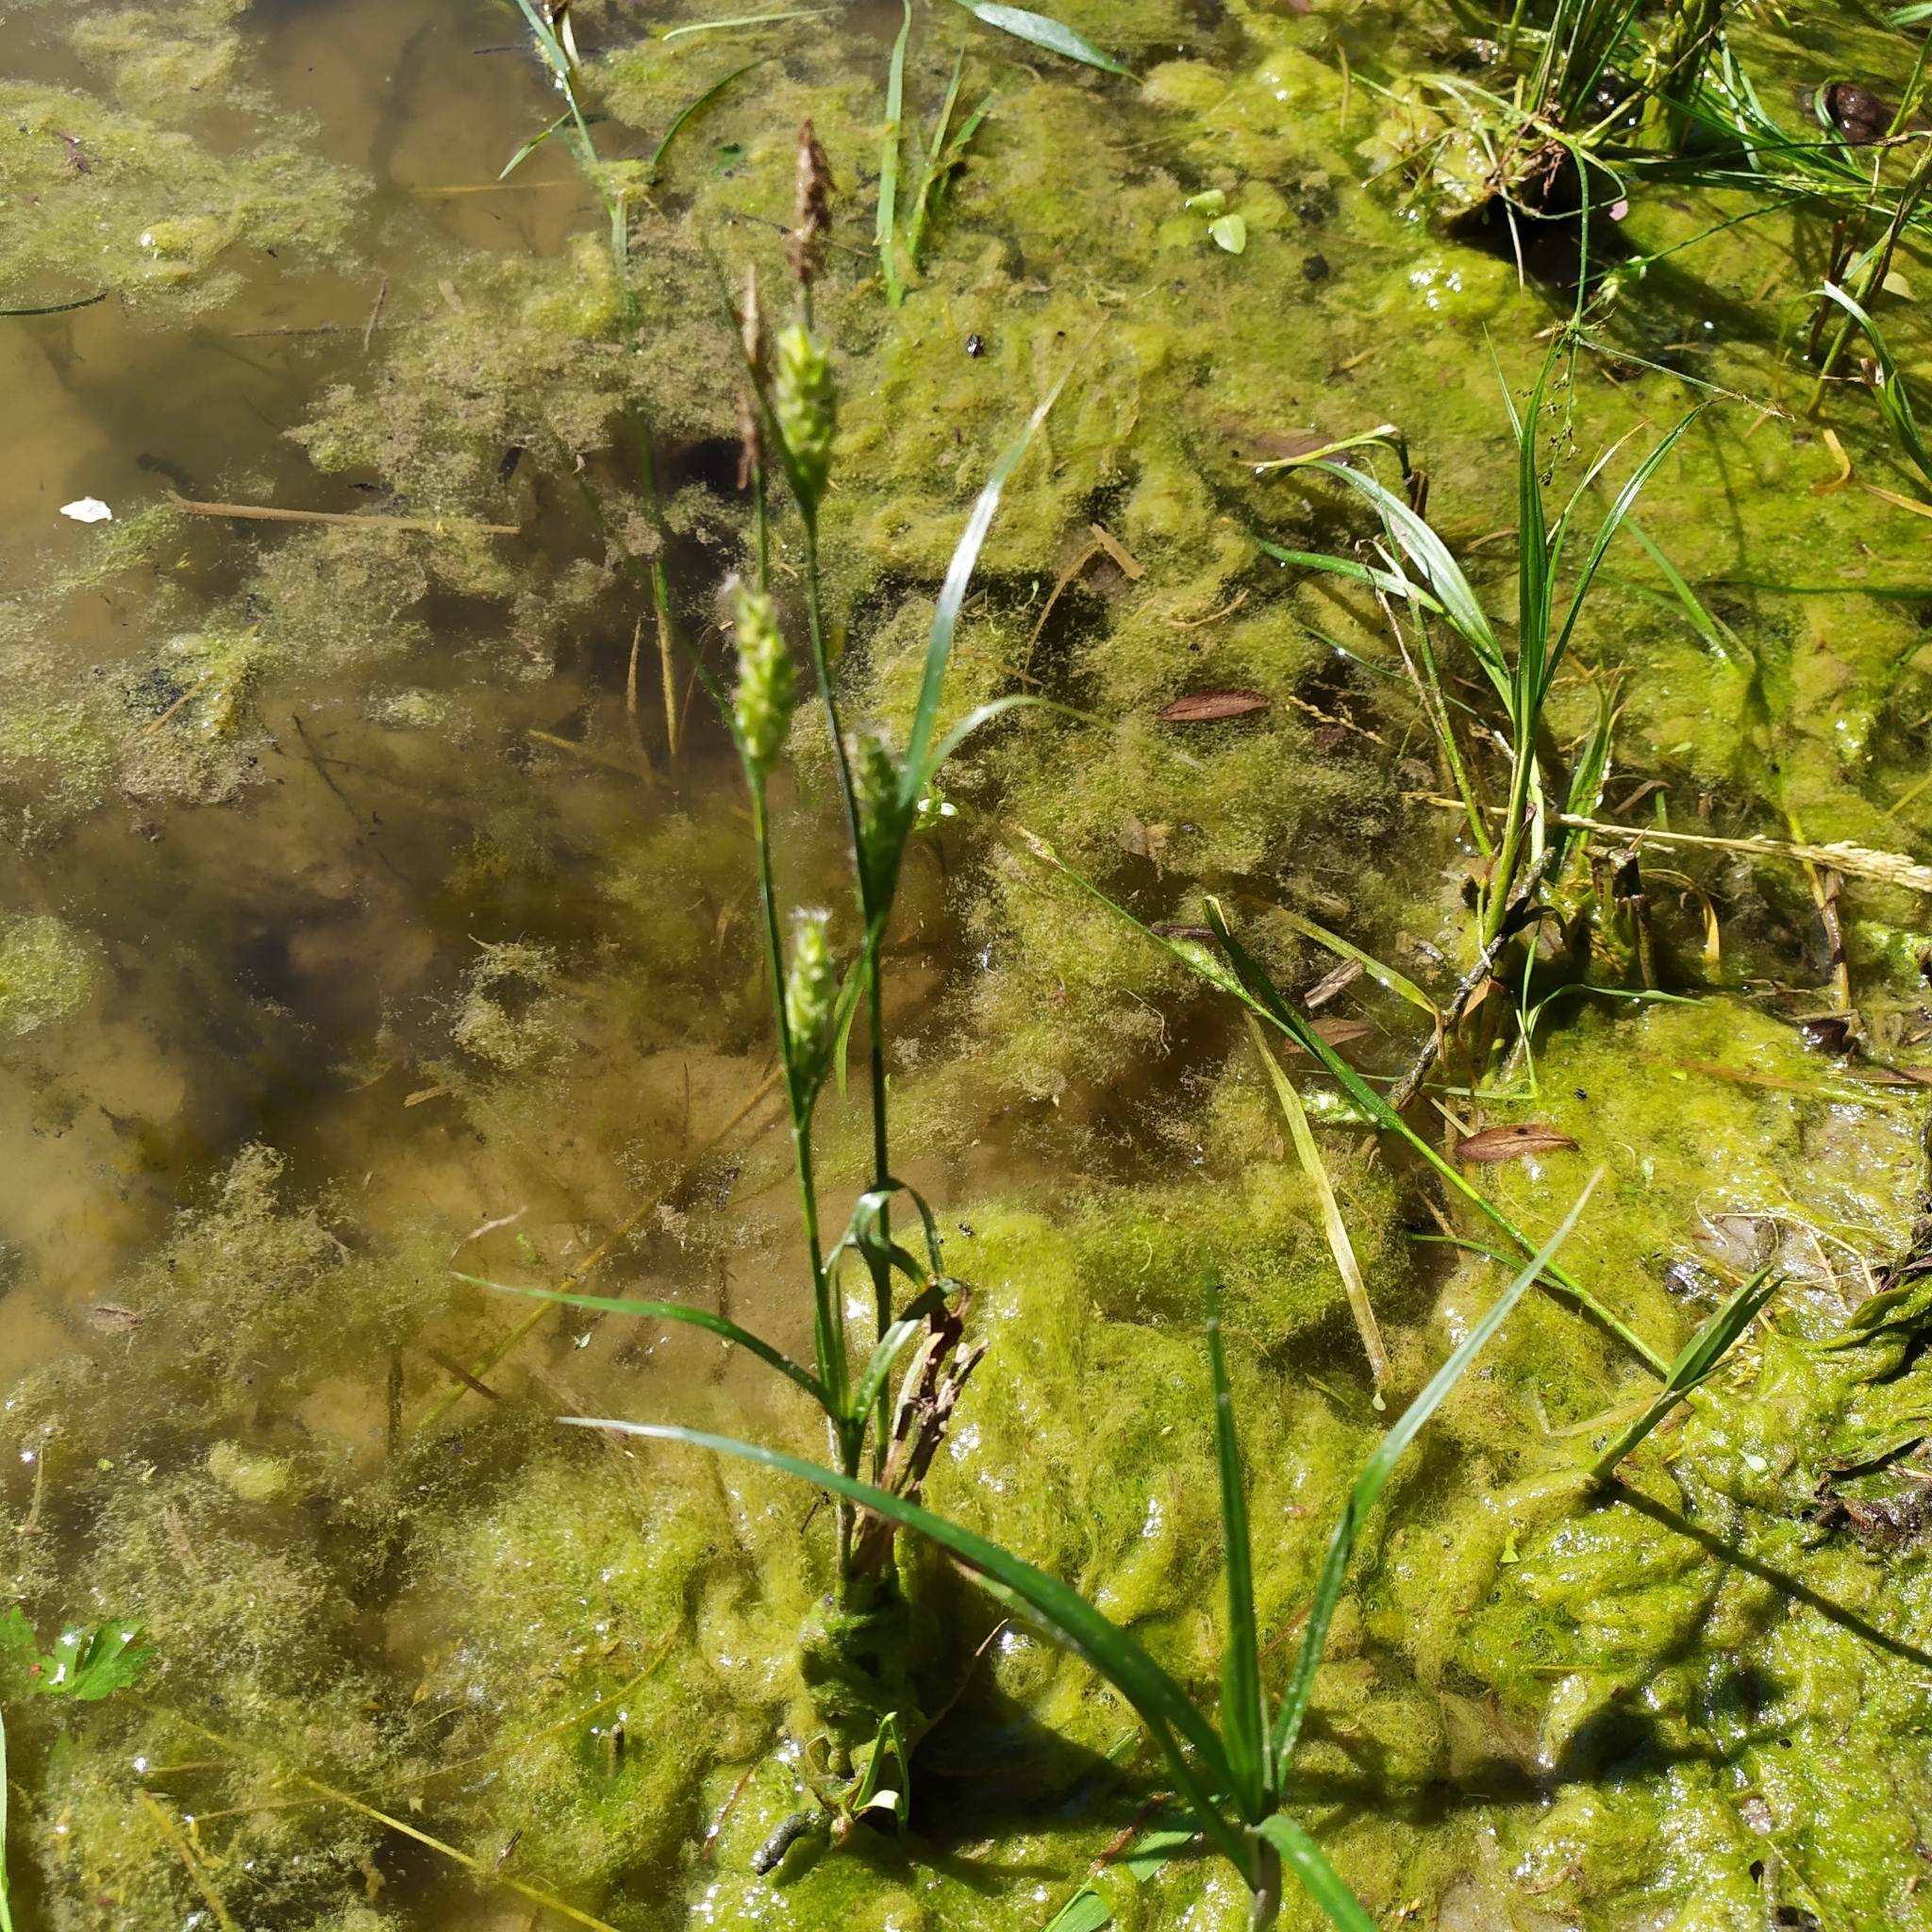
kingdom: Plantae
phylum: Tracheophyta
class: Liliopsida
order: Poales
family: Cyperaceae
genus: Carex
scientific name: Carex hirta
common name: Hairy sedge
